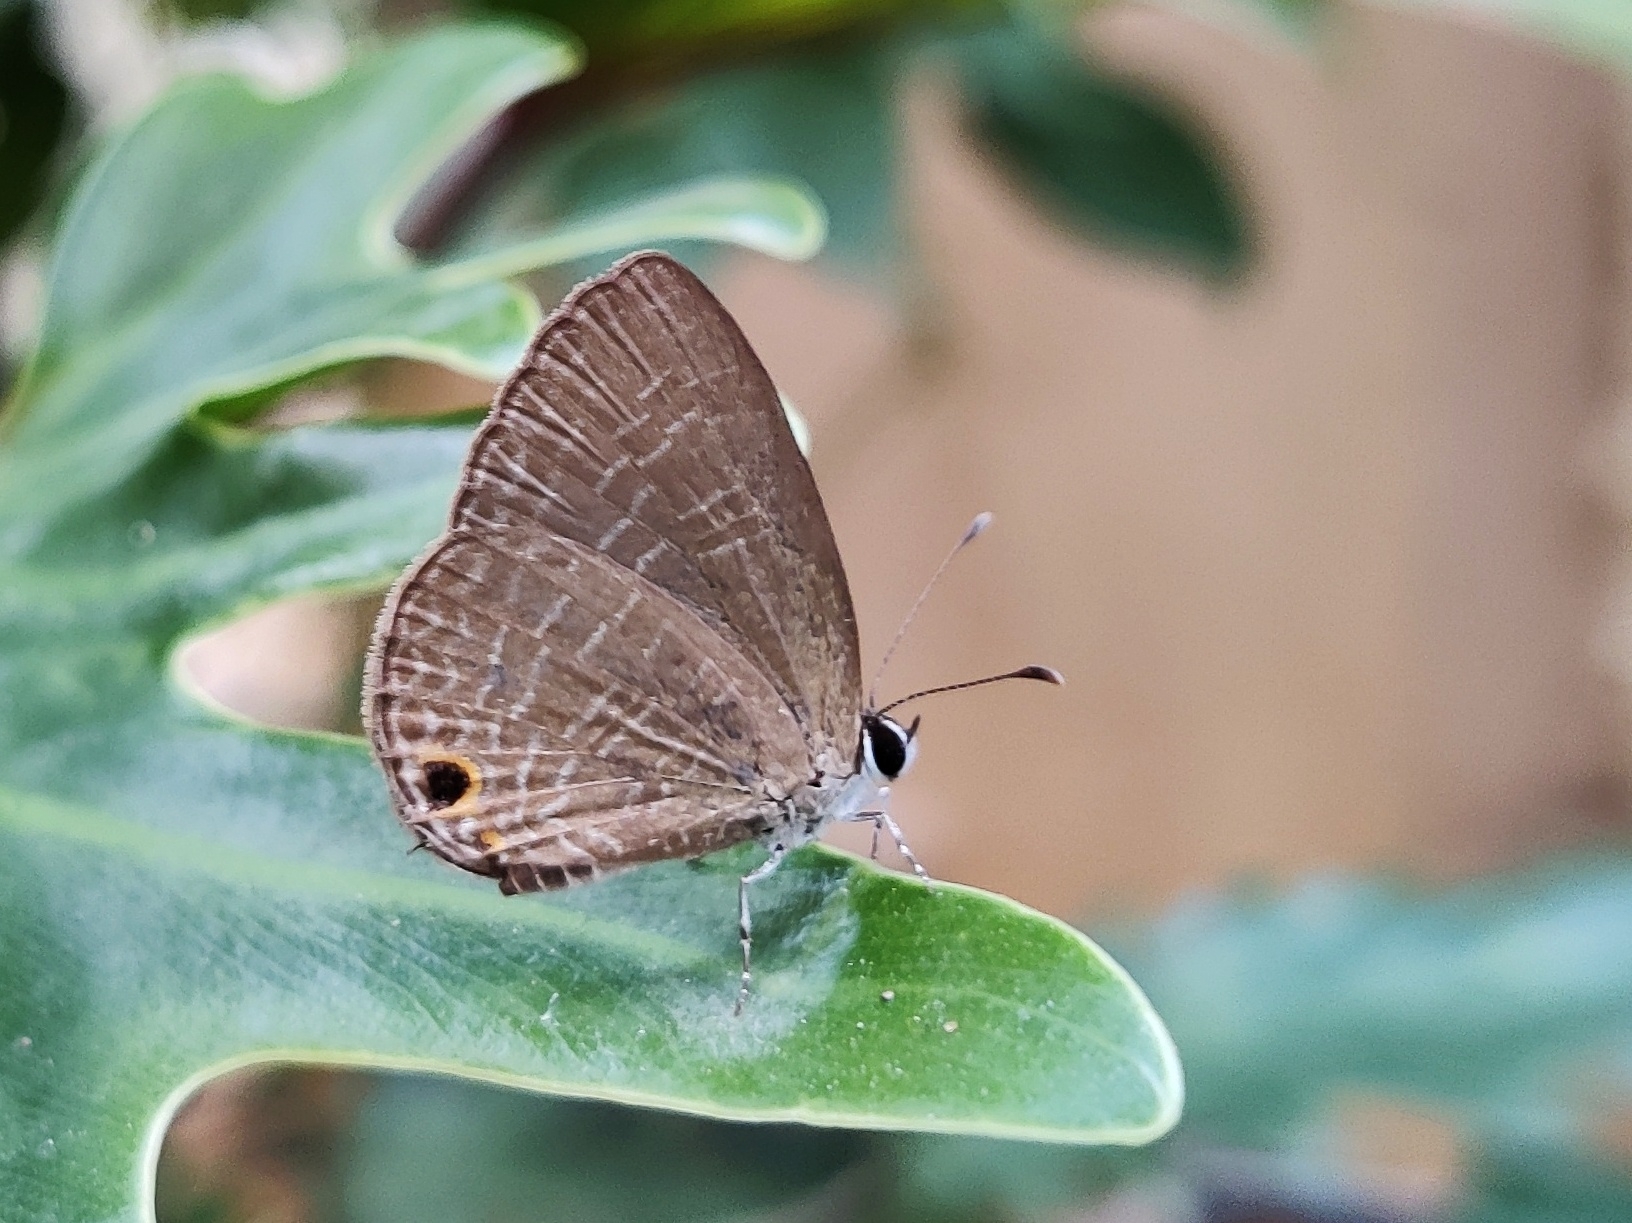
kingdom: Animalia
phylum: Arthropoda
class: Insecta
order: Lepidoptera
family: Lycaenidae
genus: Jamides
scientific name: Jamides bochus
